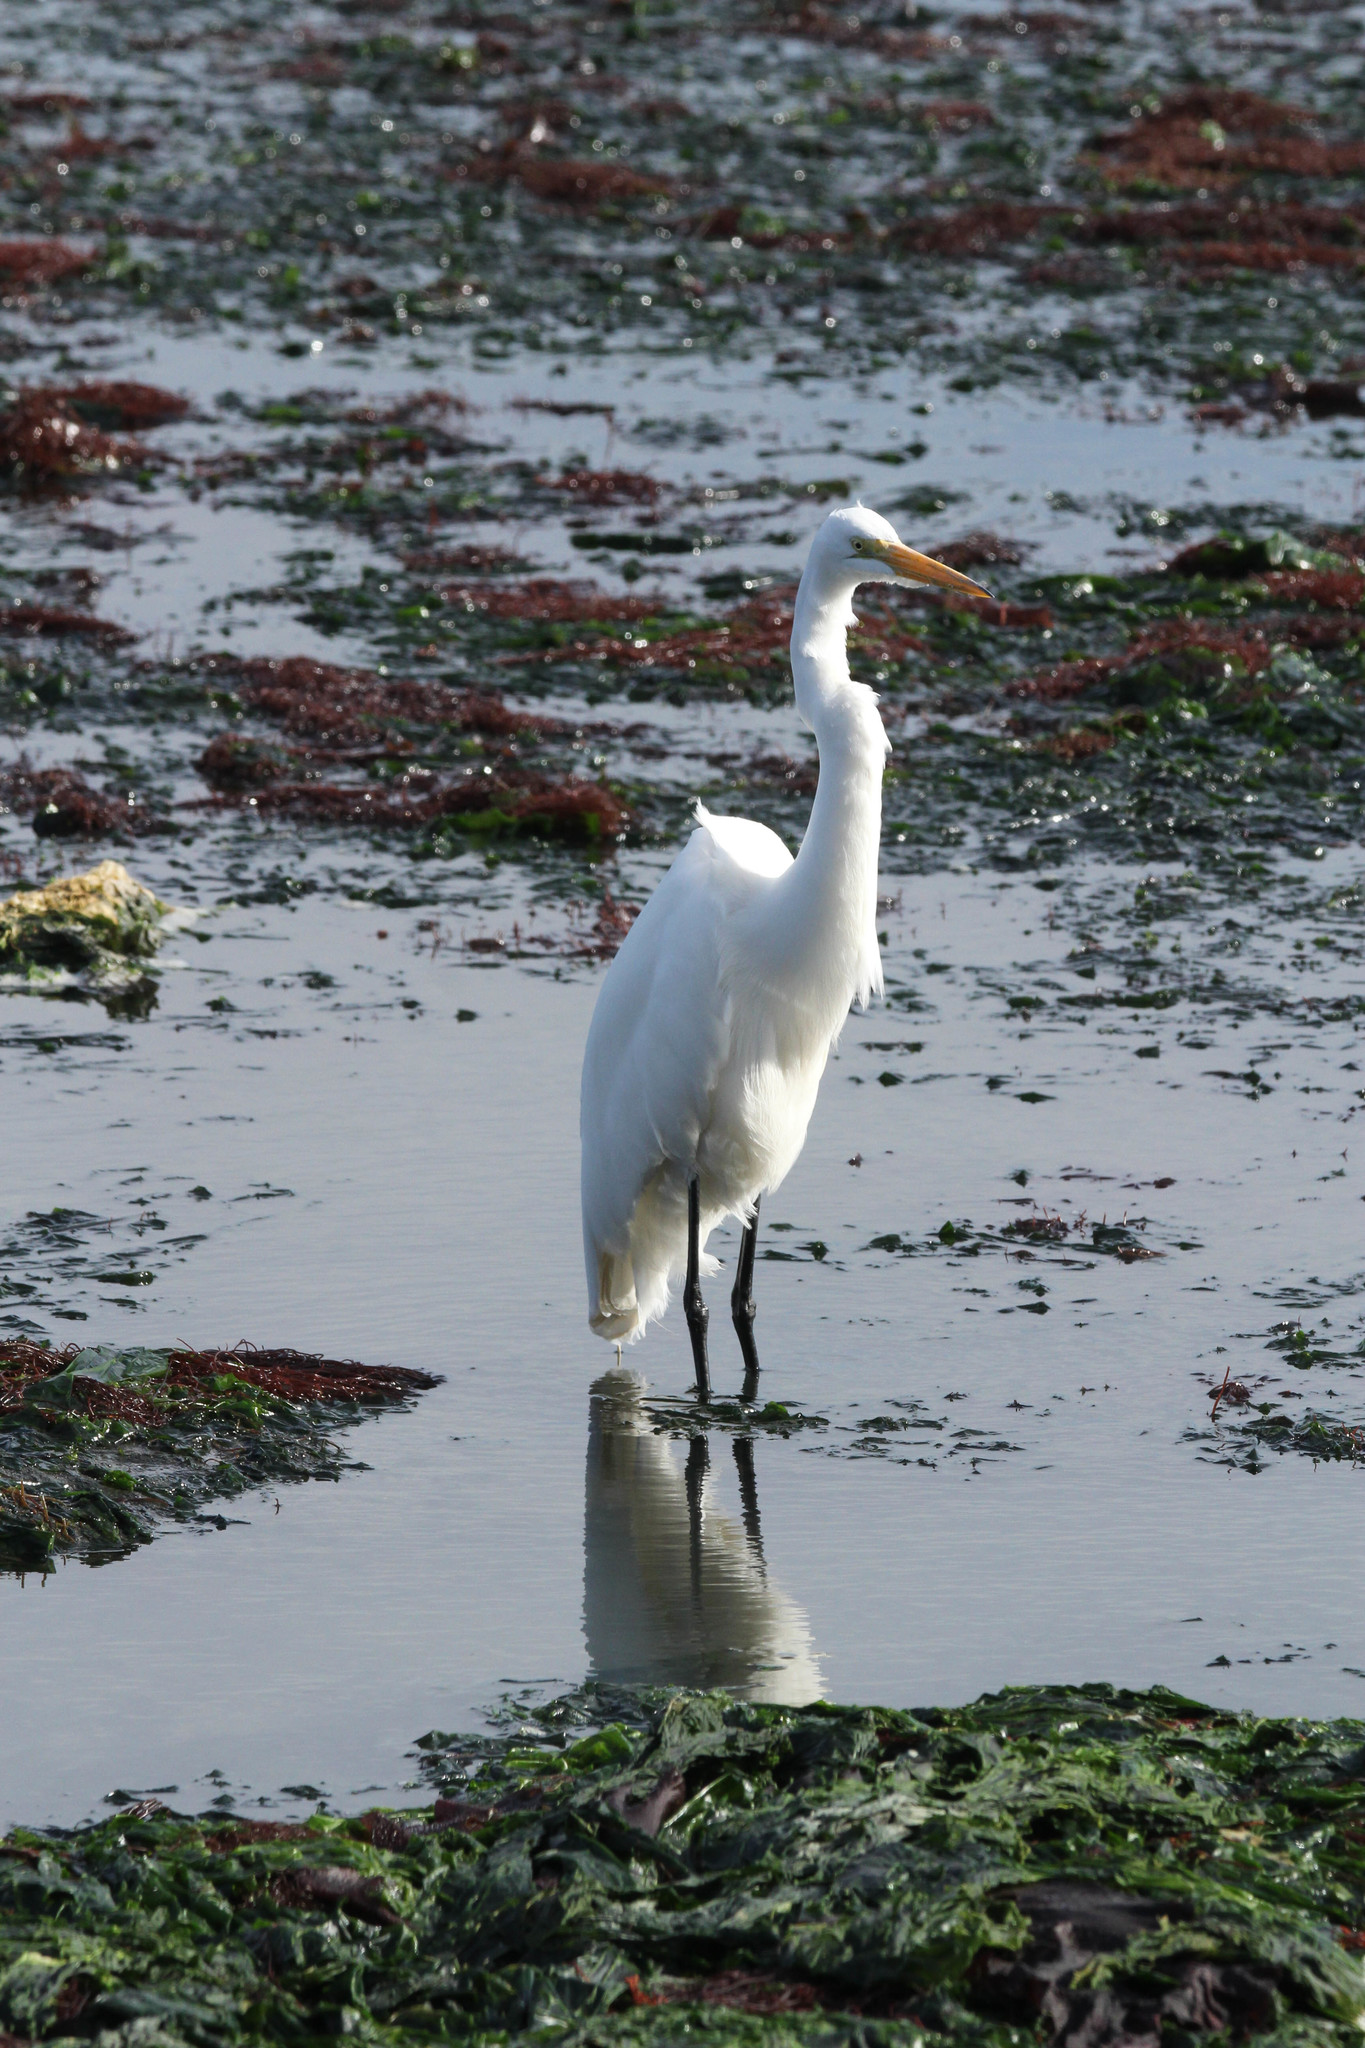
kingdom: Animalia
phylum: Chordata
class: Aves
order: Pelecaniformes
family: Ardeidae
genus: Ardea
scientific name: Ardea alba
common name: Great egret
